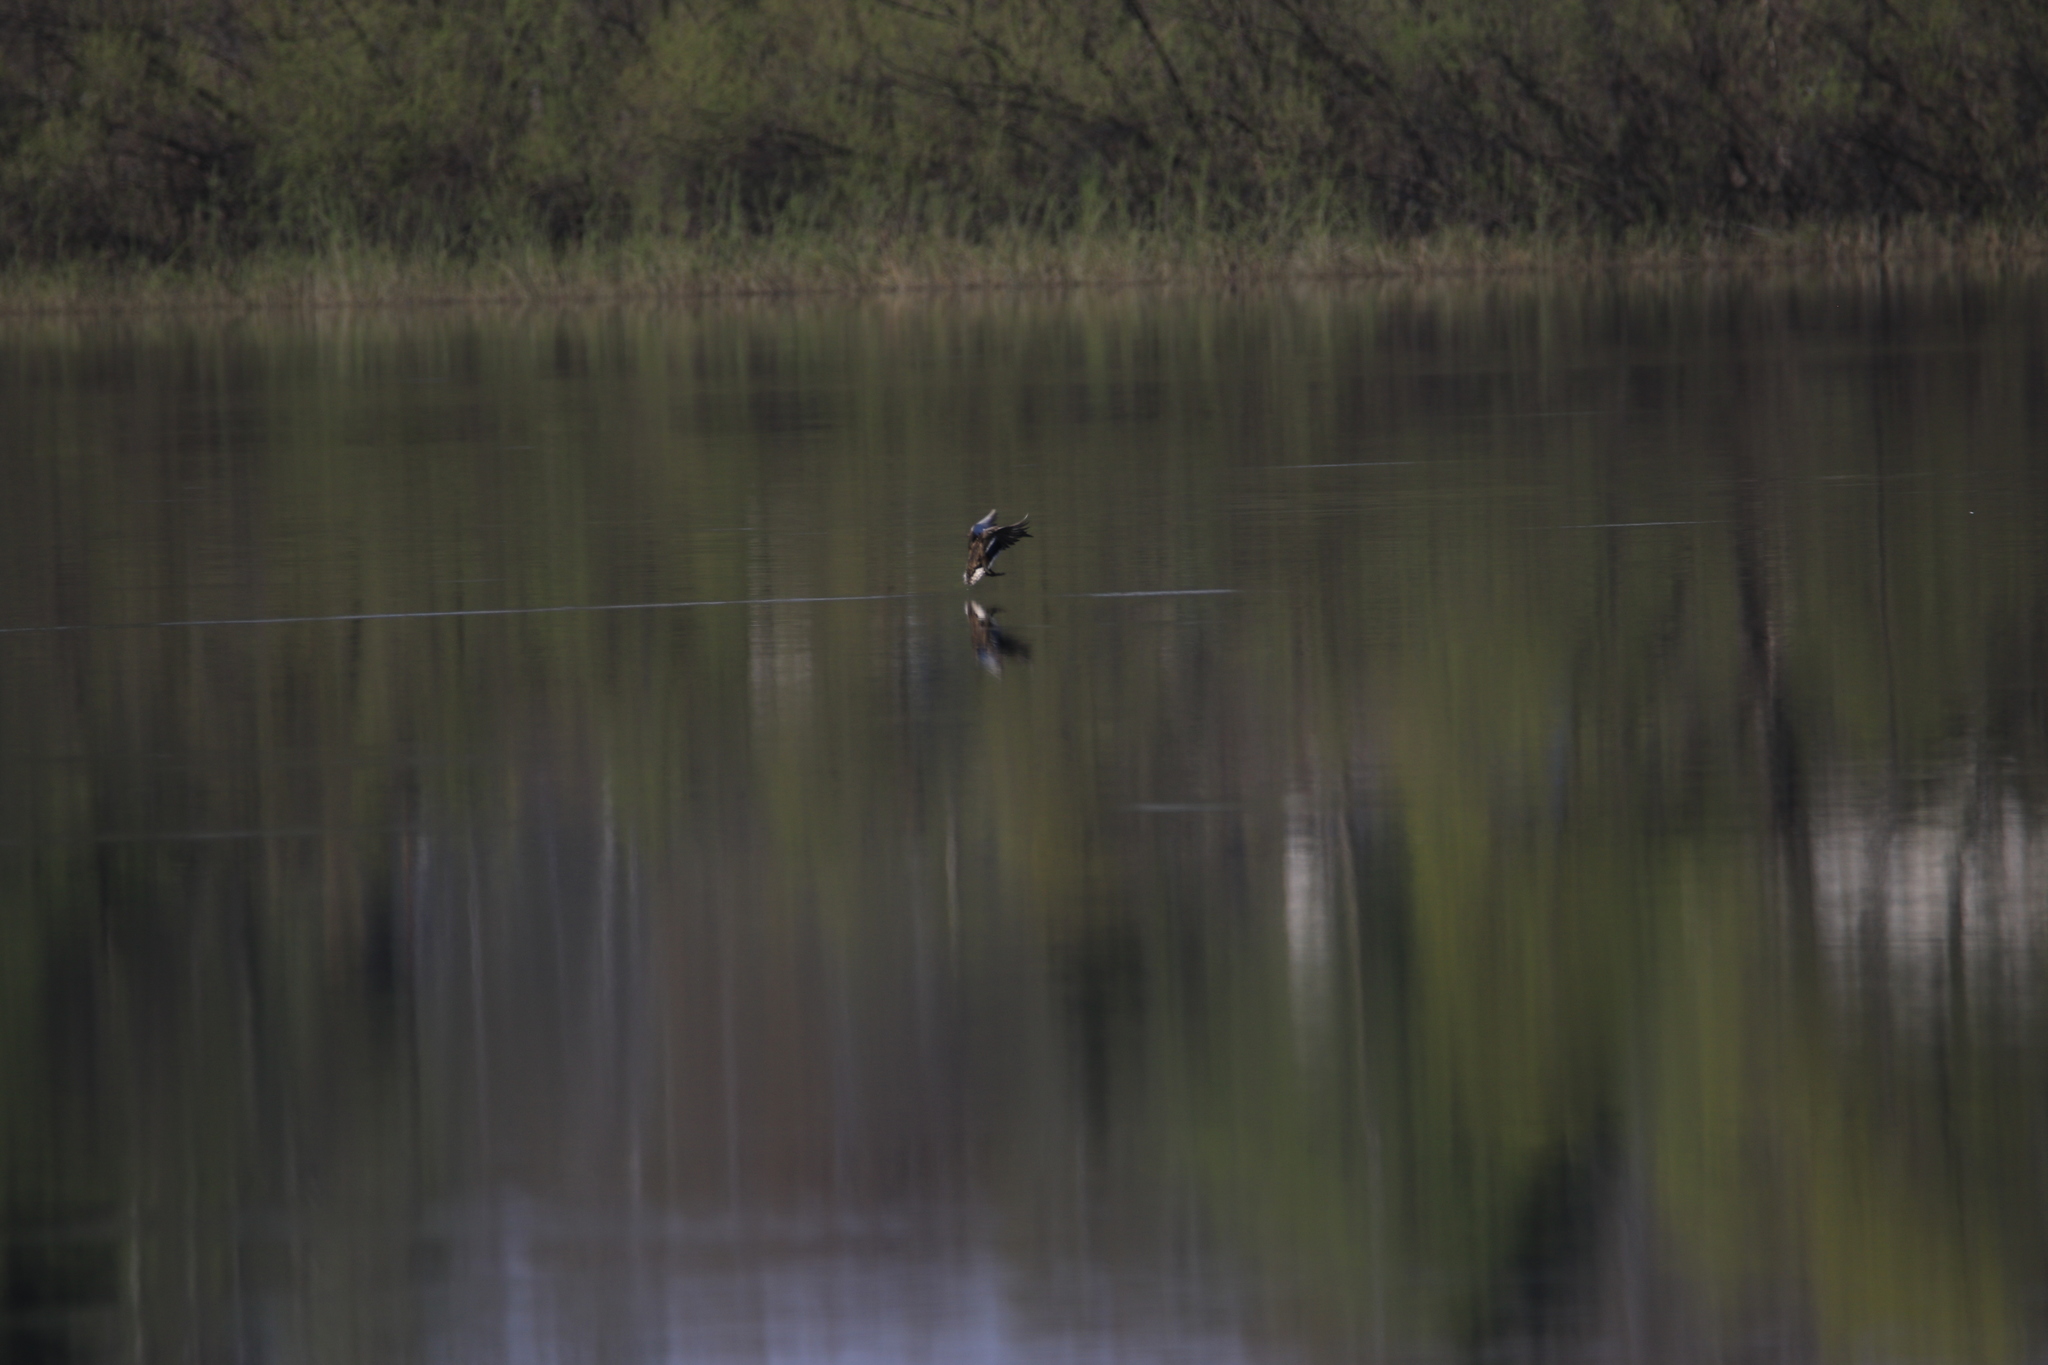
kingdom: Animalia
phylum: Chordata
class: Aves
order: Anseriformes
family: Anatidae
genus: Anas
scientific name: Anas platyrhynchos
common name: Mallard
